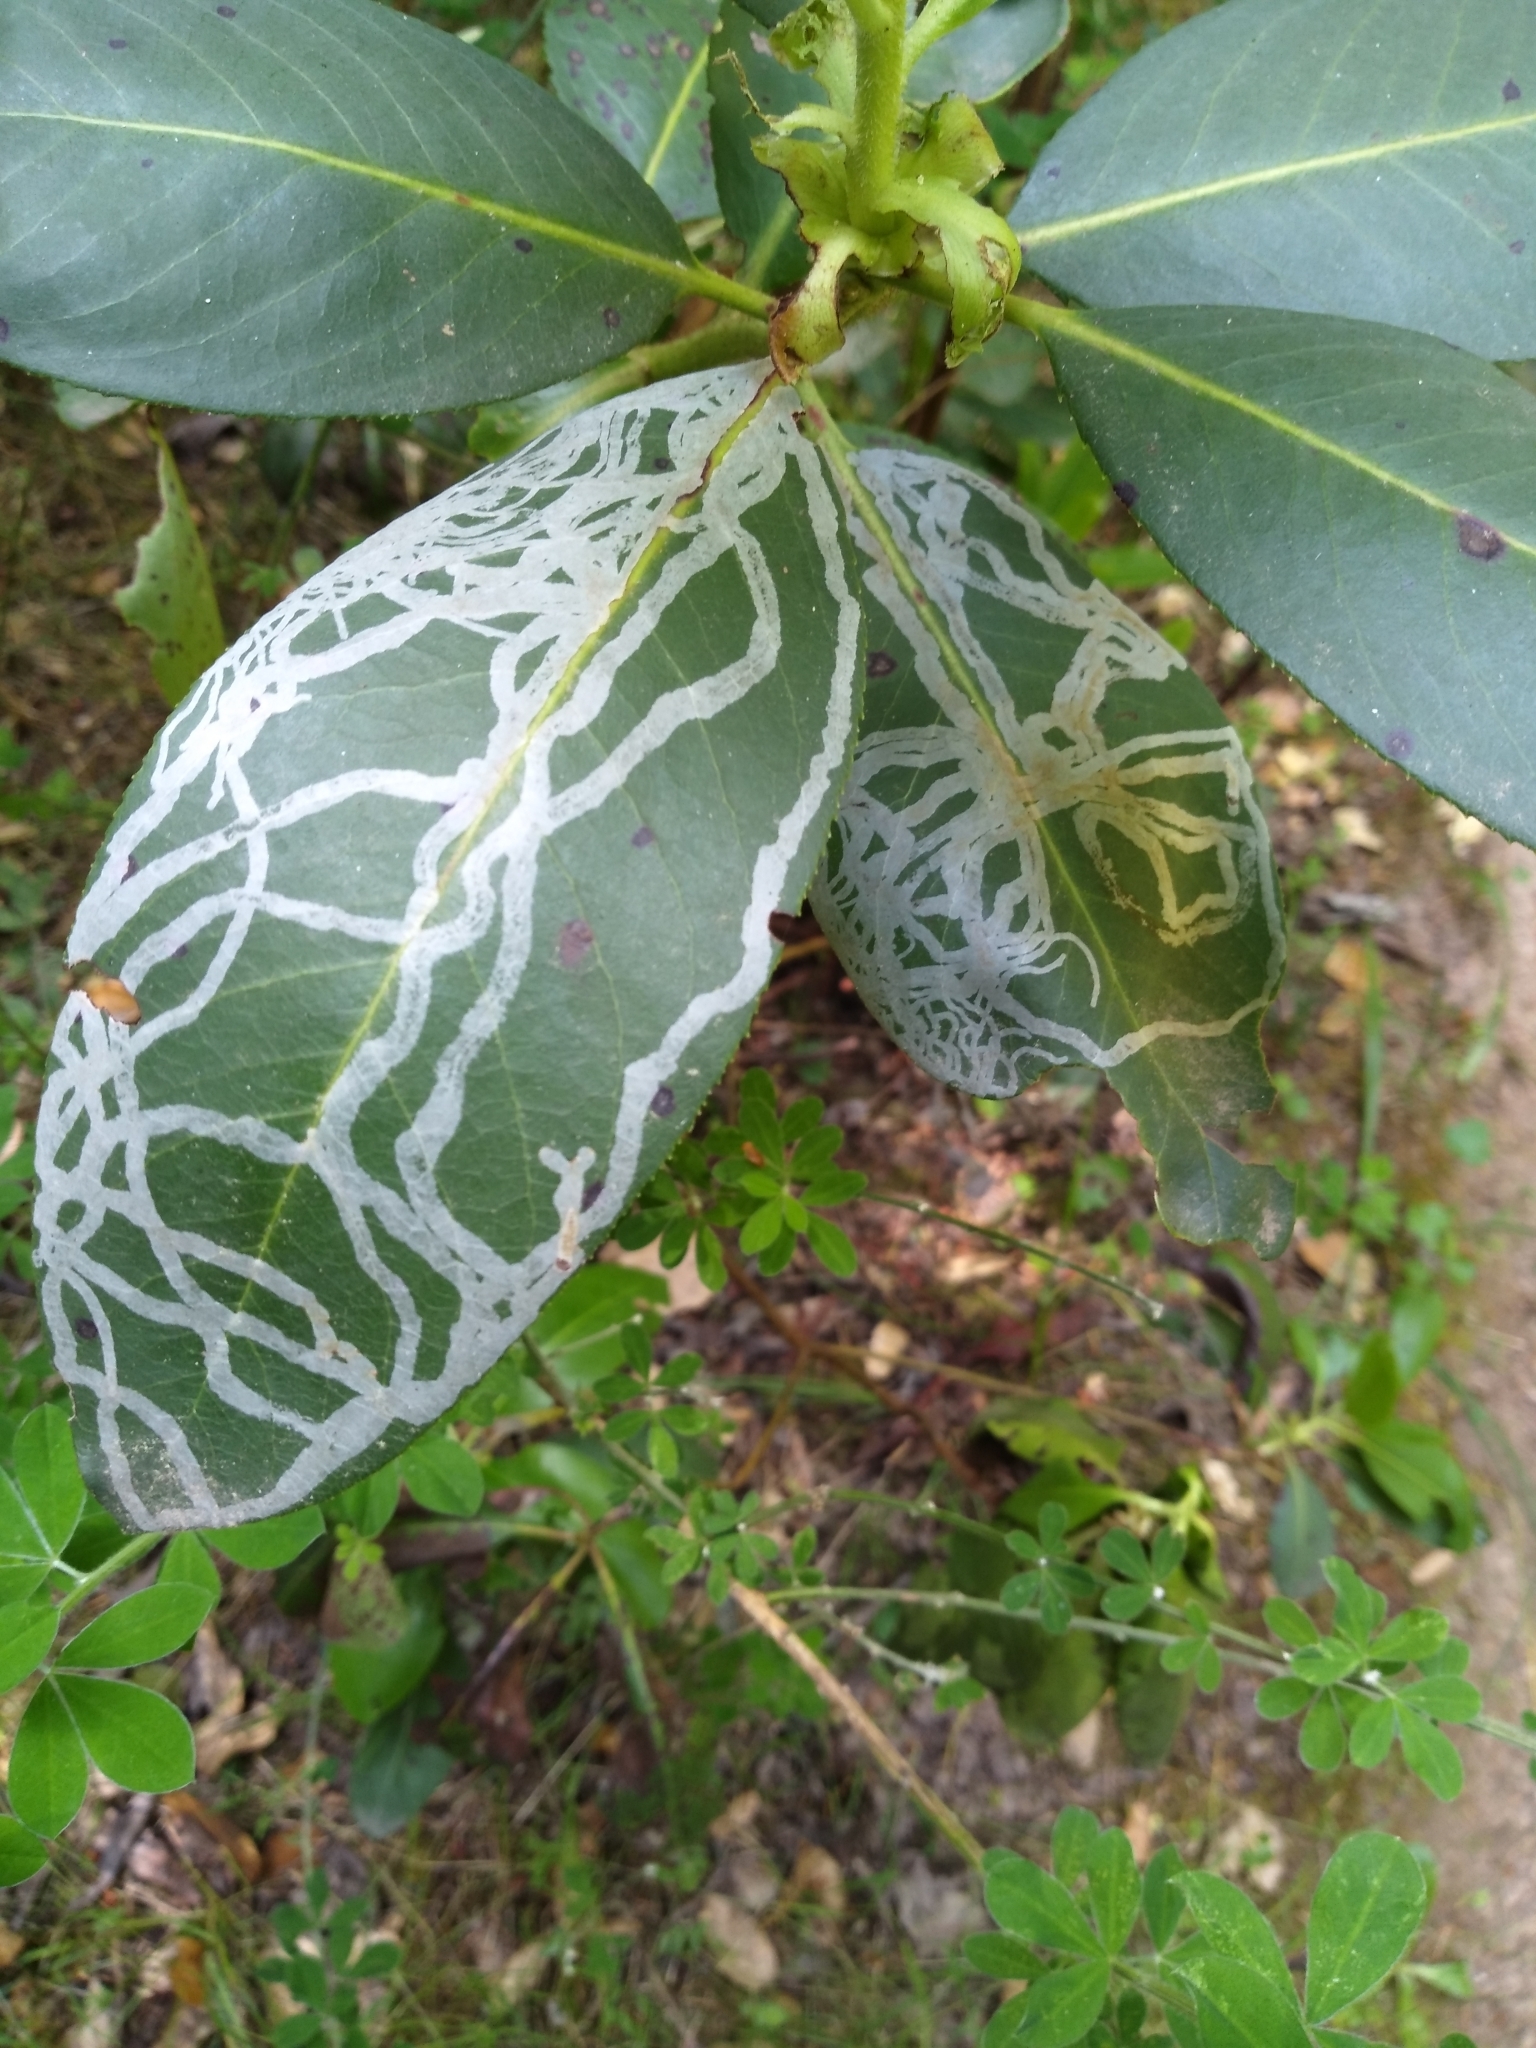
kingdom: Animalia
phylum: Arthropoda
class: Insecta
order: Lepidoptera
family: Gracillariidae
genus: Marmara
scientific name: Marmara arbutiella
